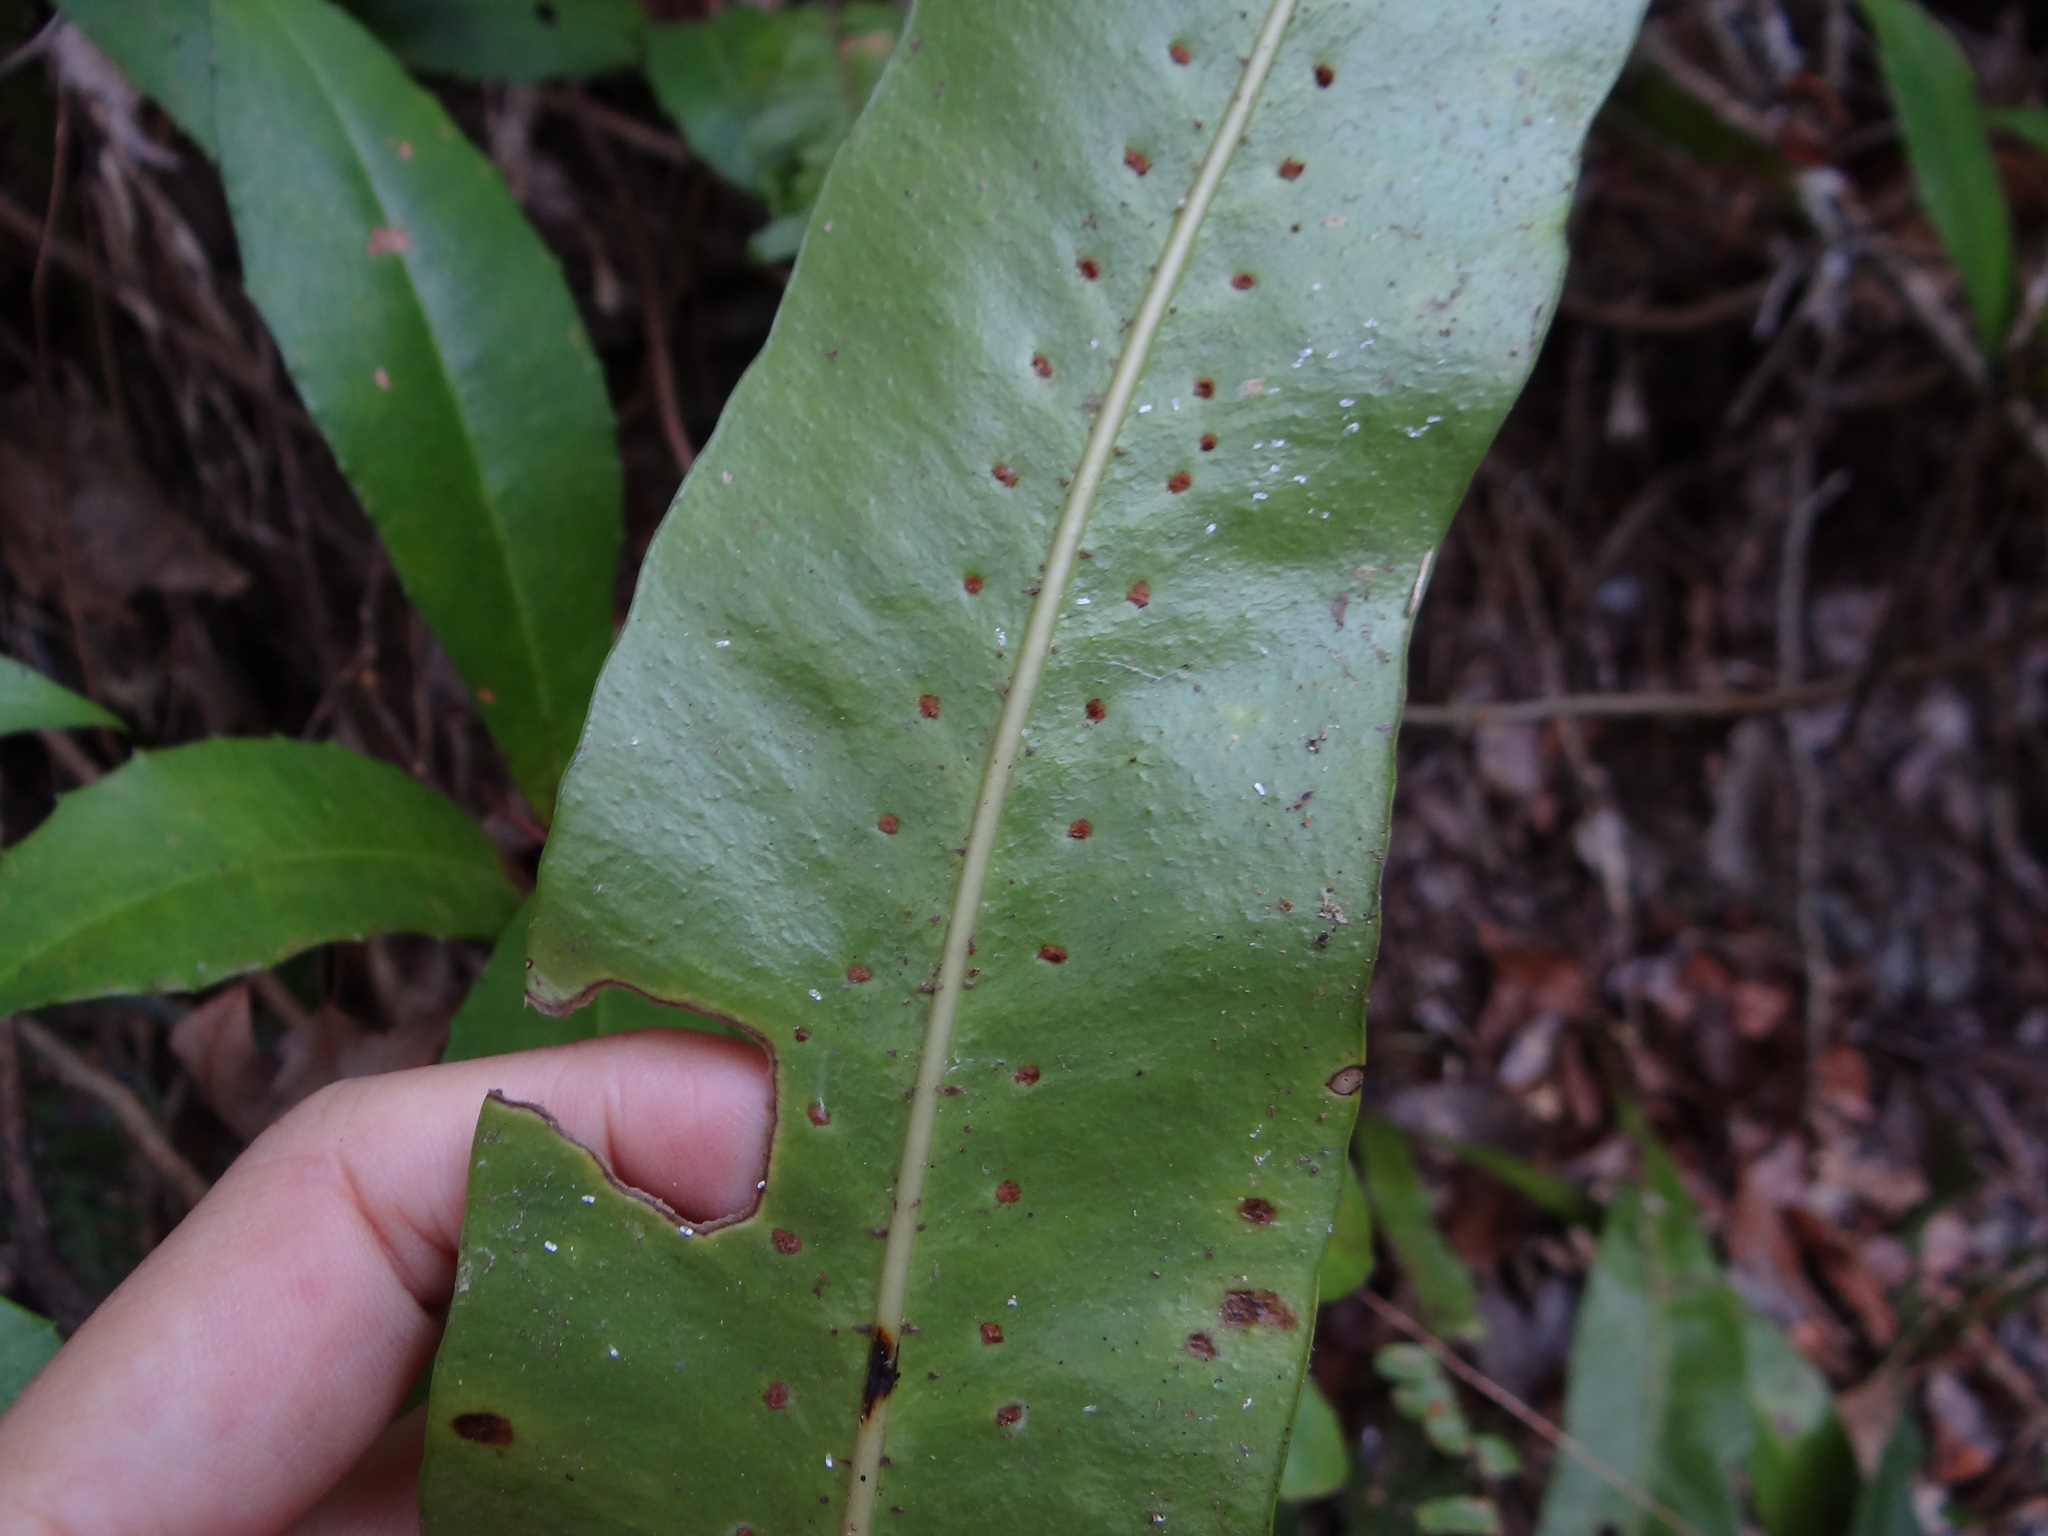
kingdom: Plantae
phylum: Tracheophyta
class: Polypodiopsida
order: Polypodiales
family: Polypodiaceae
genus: Lepisorus
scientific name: Lepisorus fortuni
